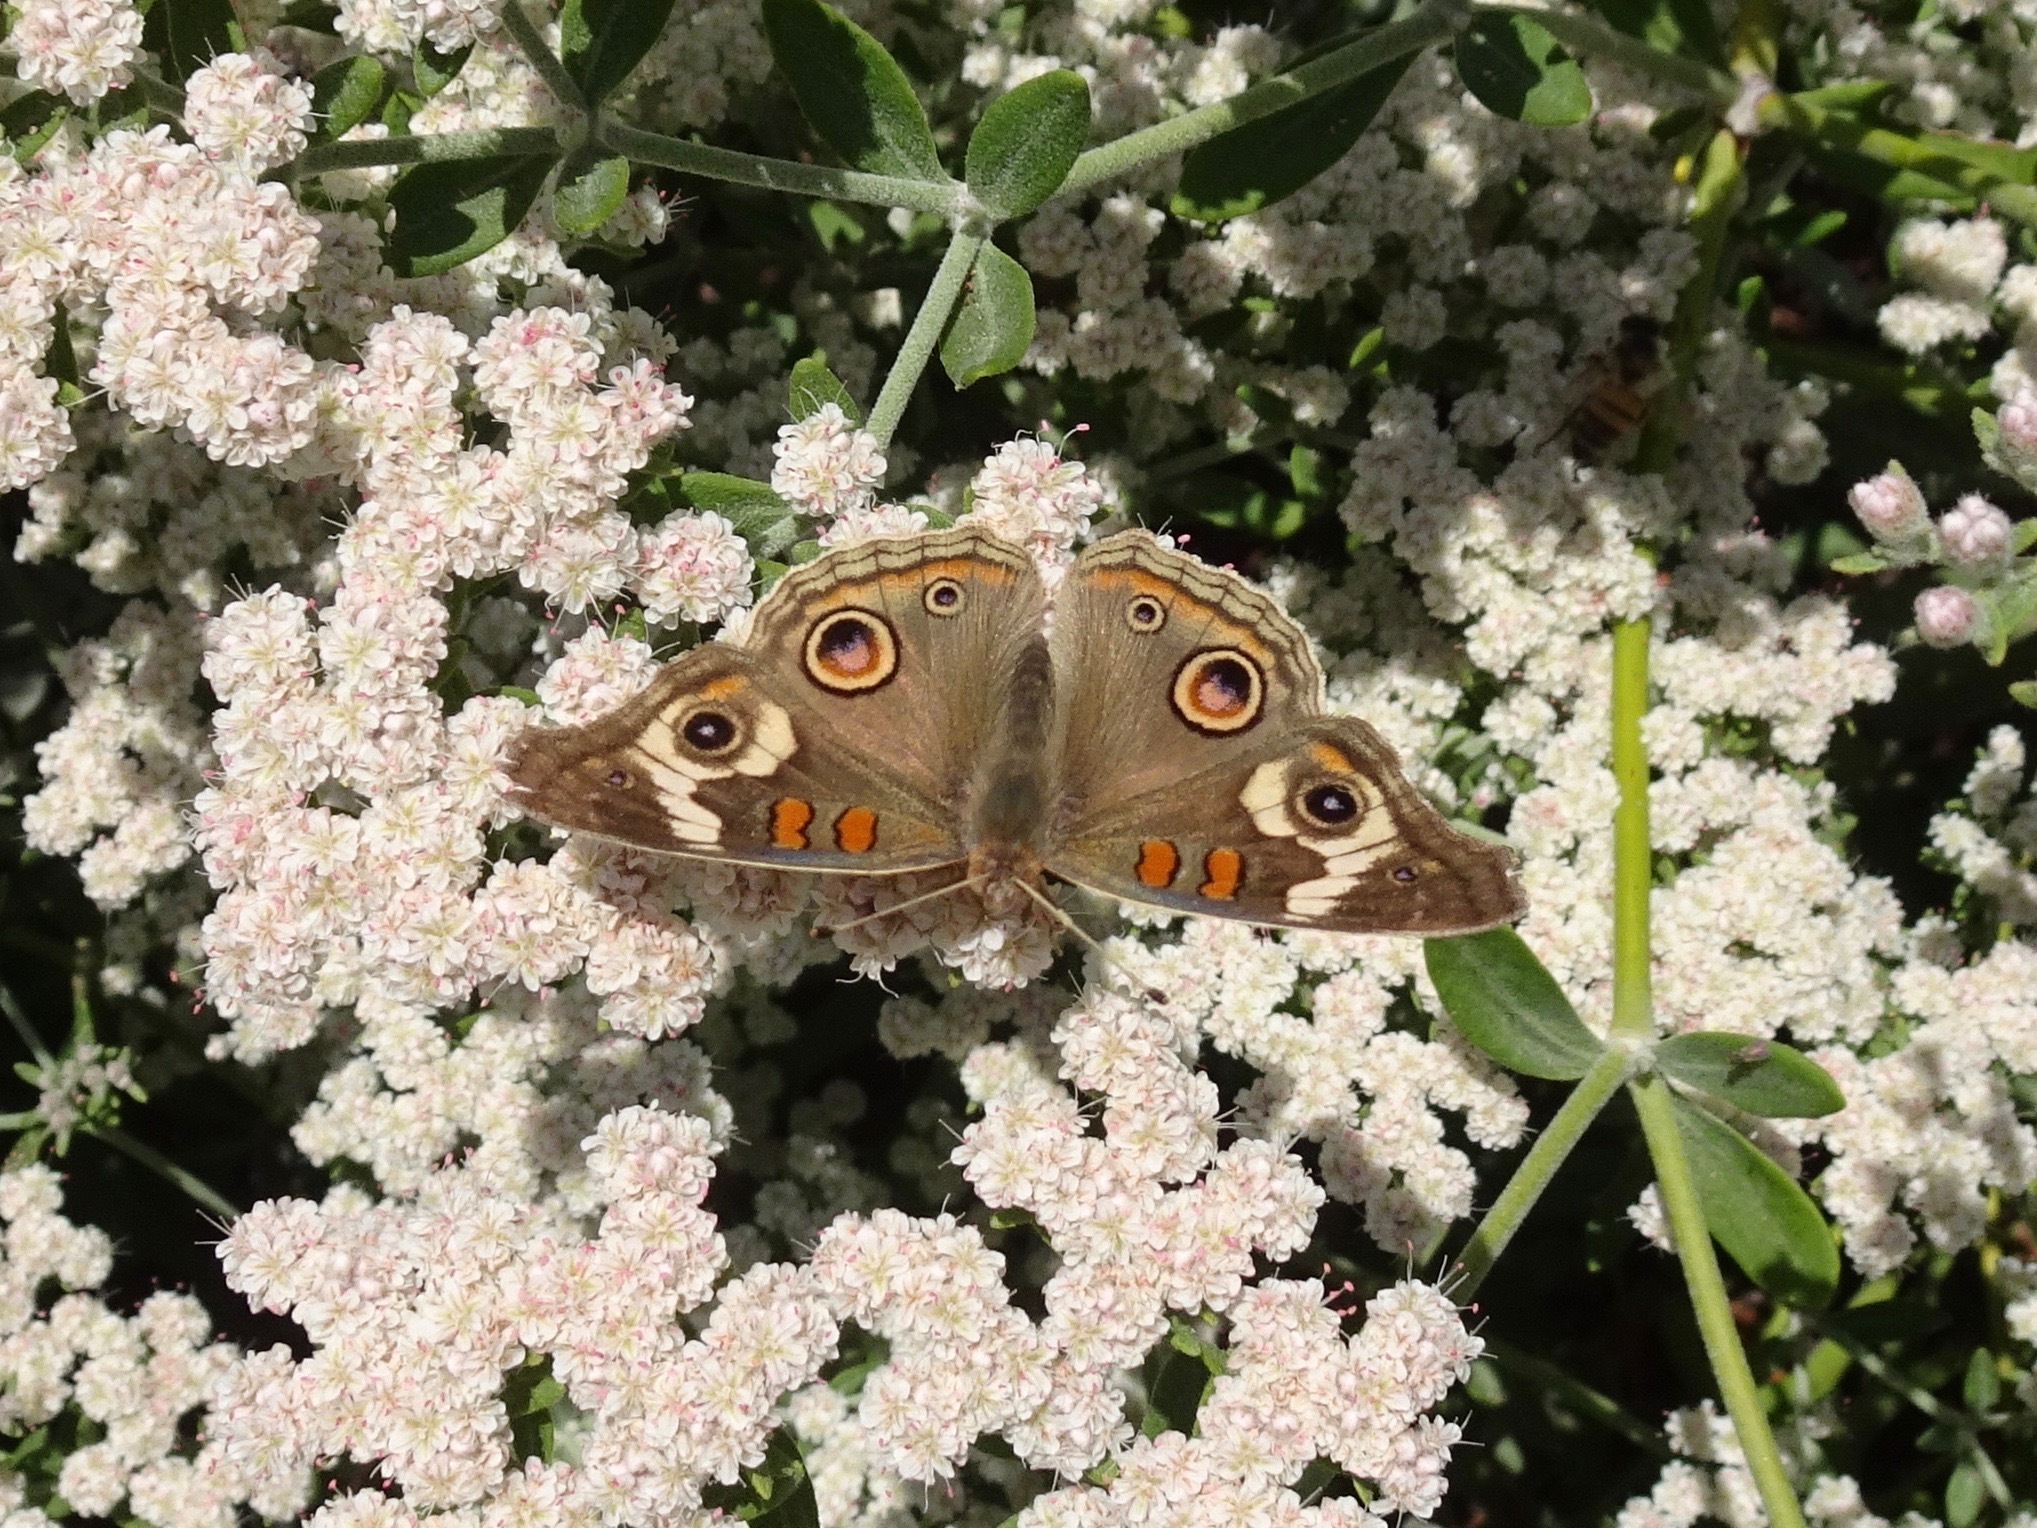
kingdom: Animalia
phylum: Arthropoda
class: Insecta
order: Lepidoptera
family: Nymphalidae
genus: Junonia
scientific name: Junonia grisea
